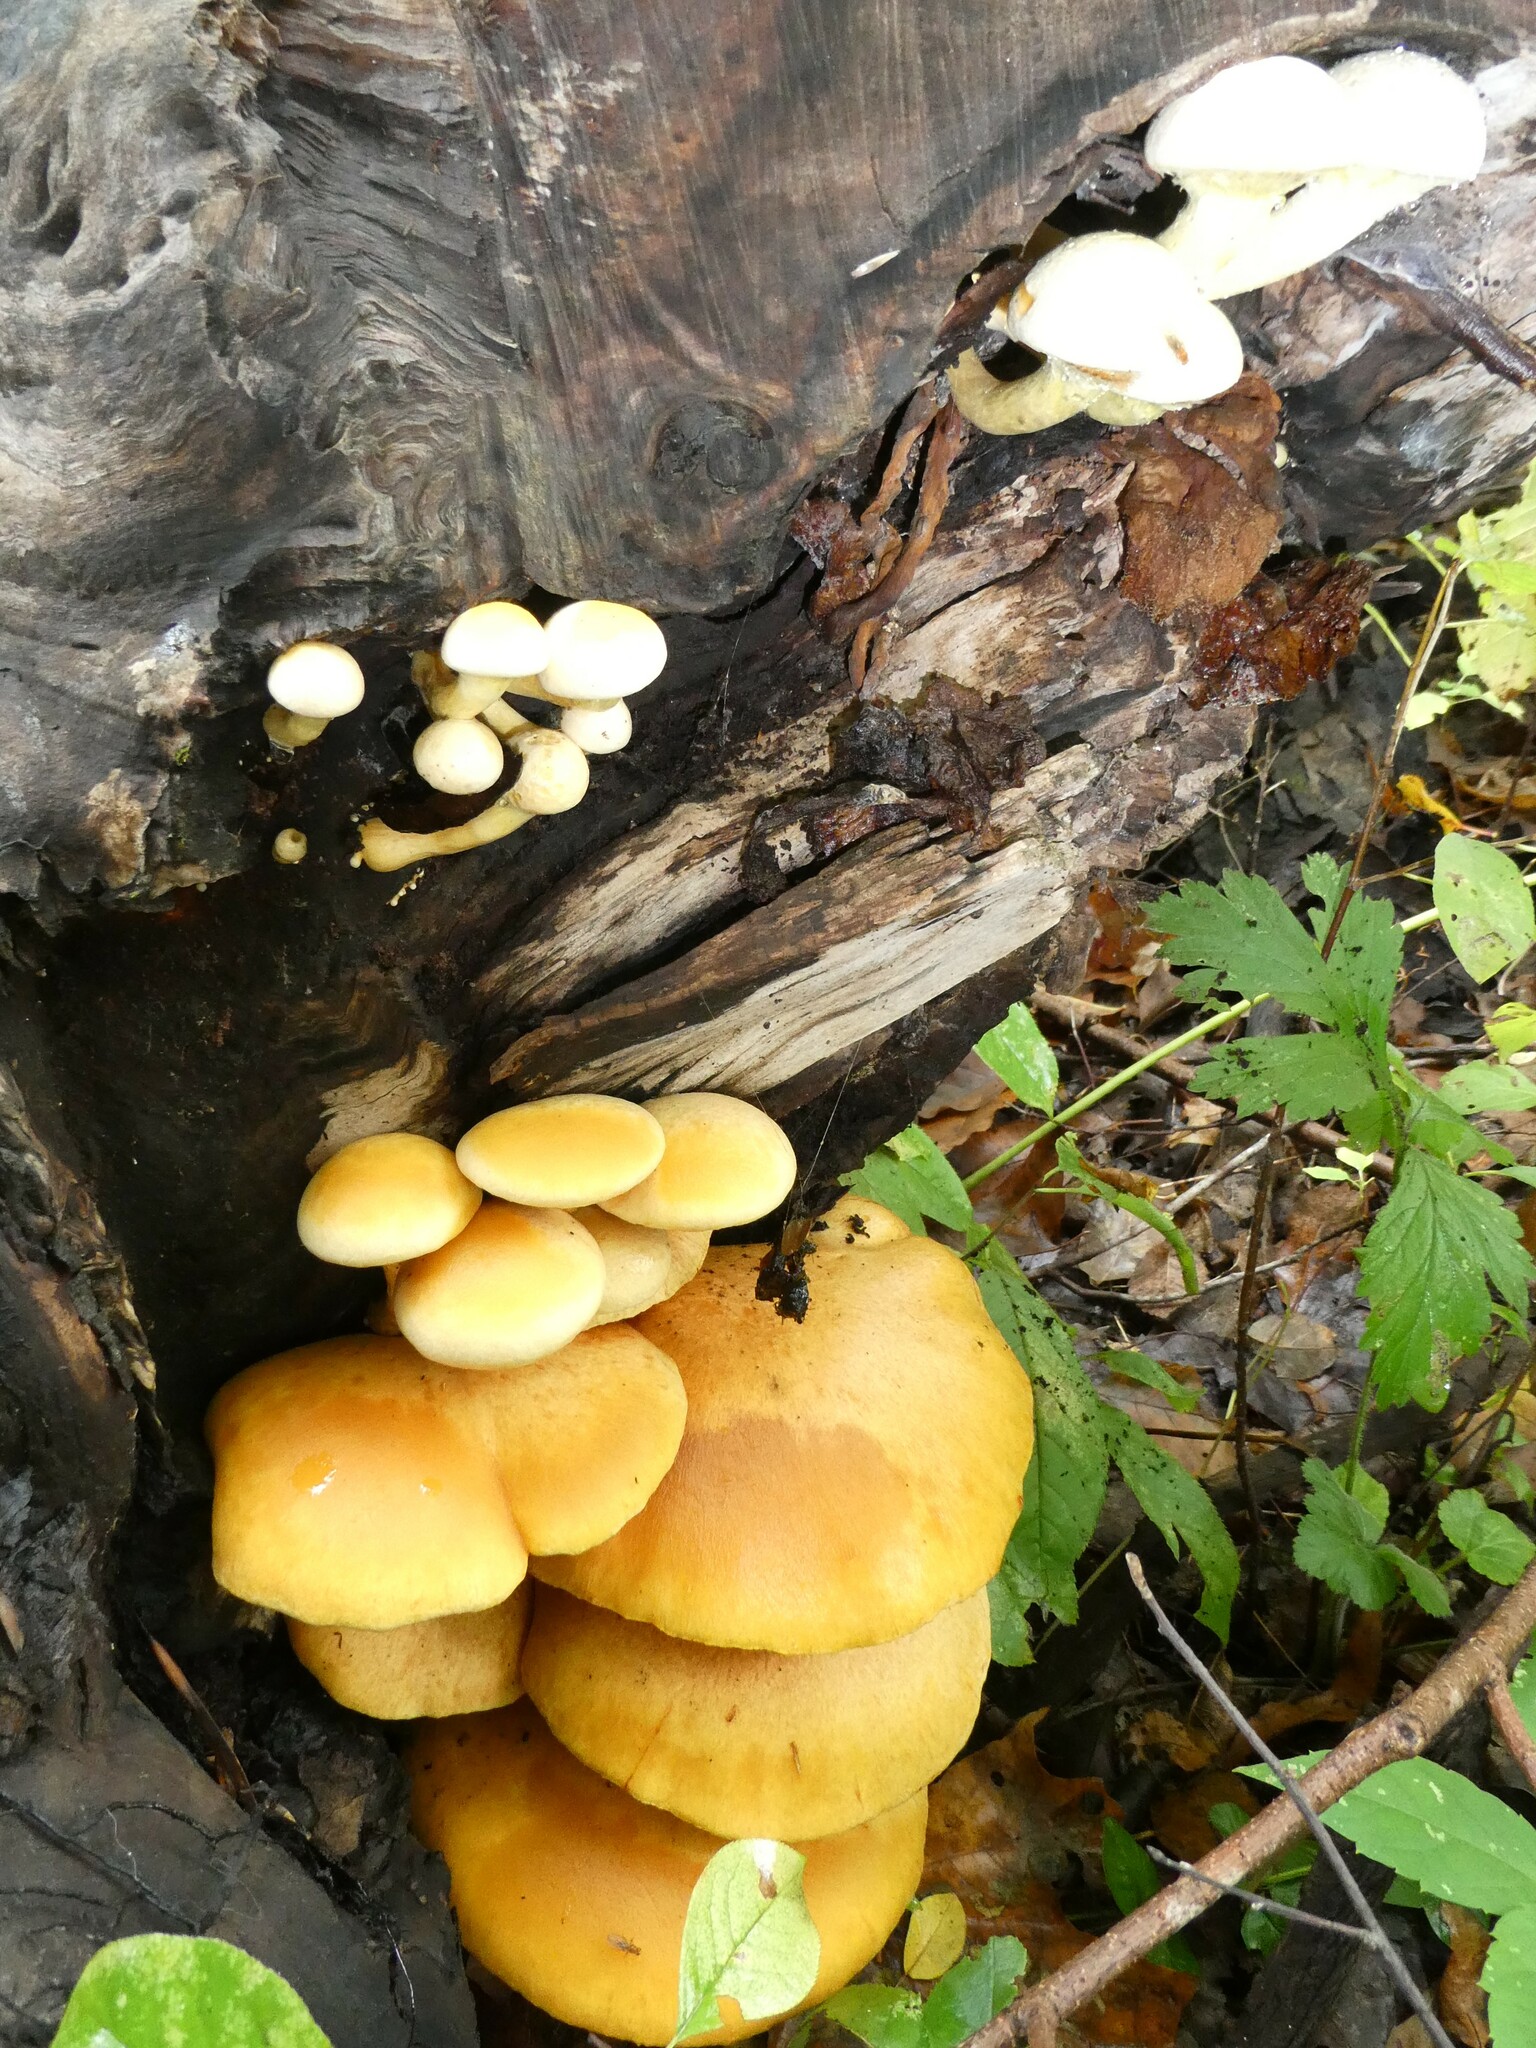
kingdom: Fungi
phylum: Basidiomycota
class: Agaricomycetes
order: Agaricales
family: Hymenogastraceae
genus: Gymnopilus
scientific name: Gymnopilus luteus
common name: Yellow gymnopilus
